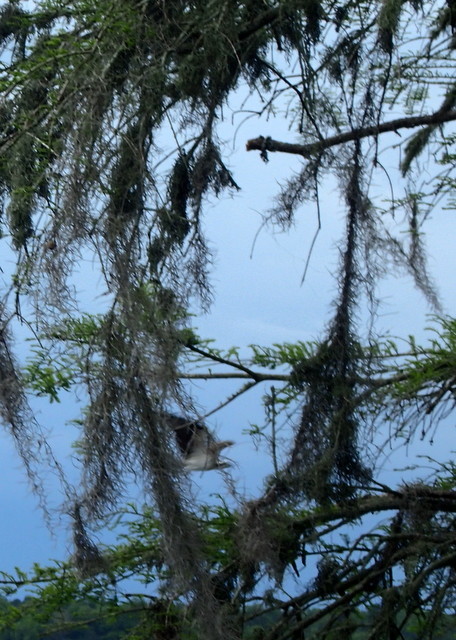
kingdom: Animalia
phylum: Chordata
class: Aves
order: Accipitriformes
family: Pandionidae
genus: Pandion
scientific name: Pandion haliaetus
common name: Osprey
